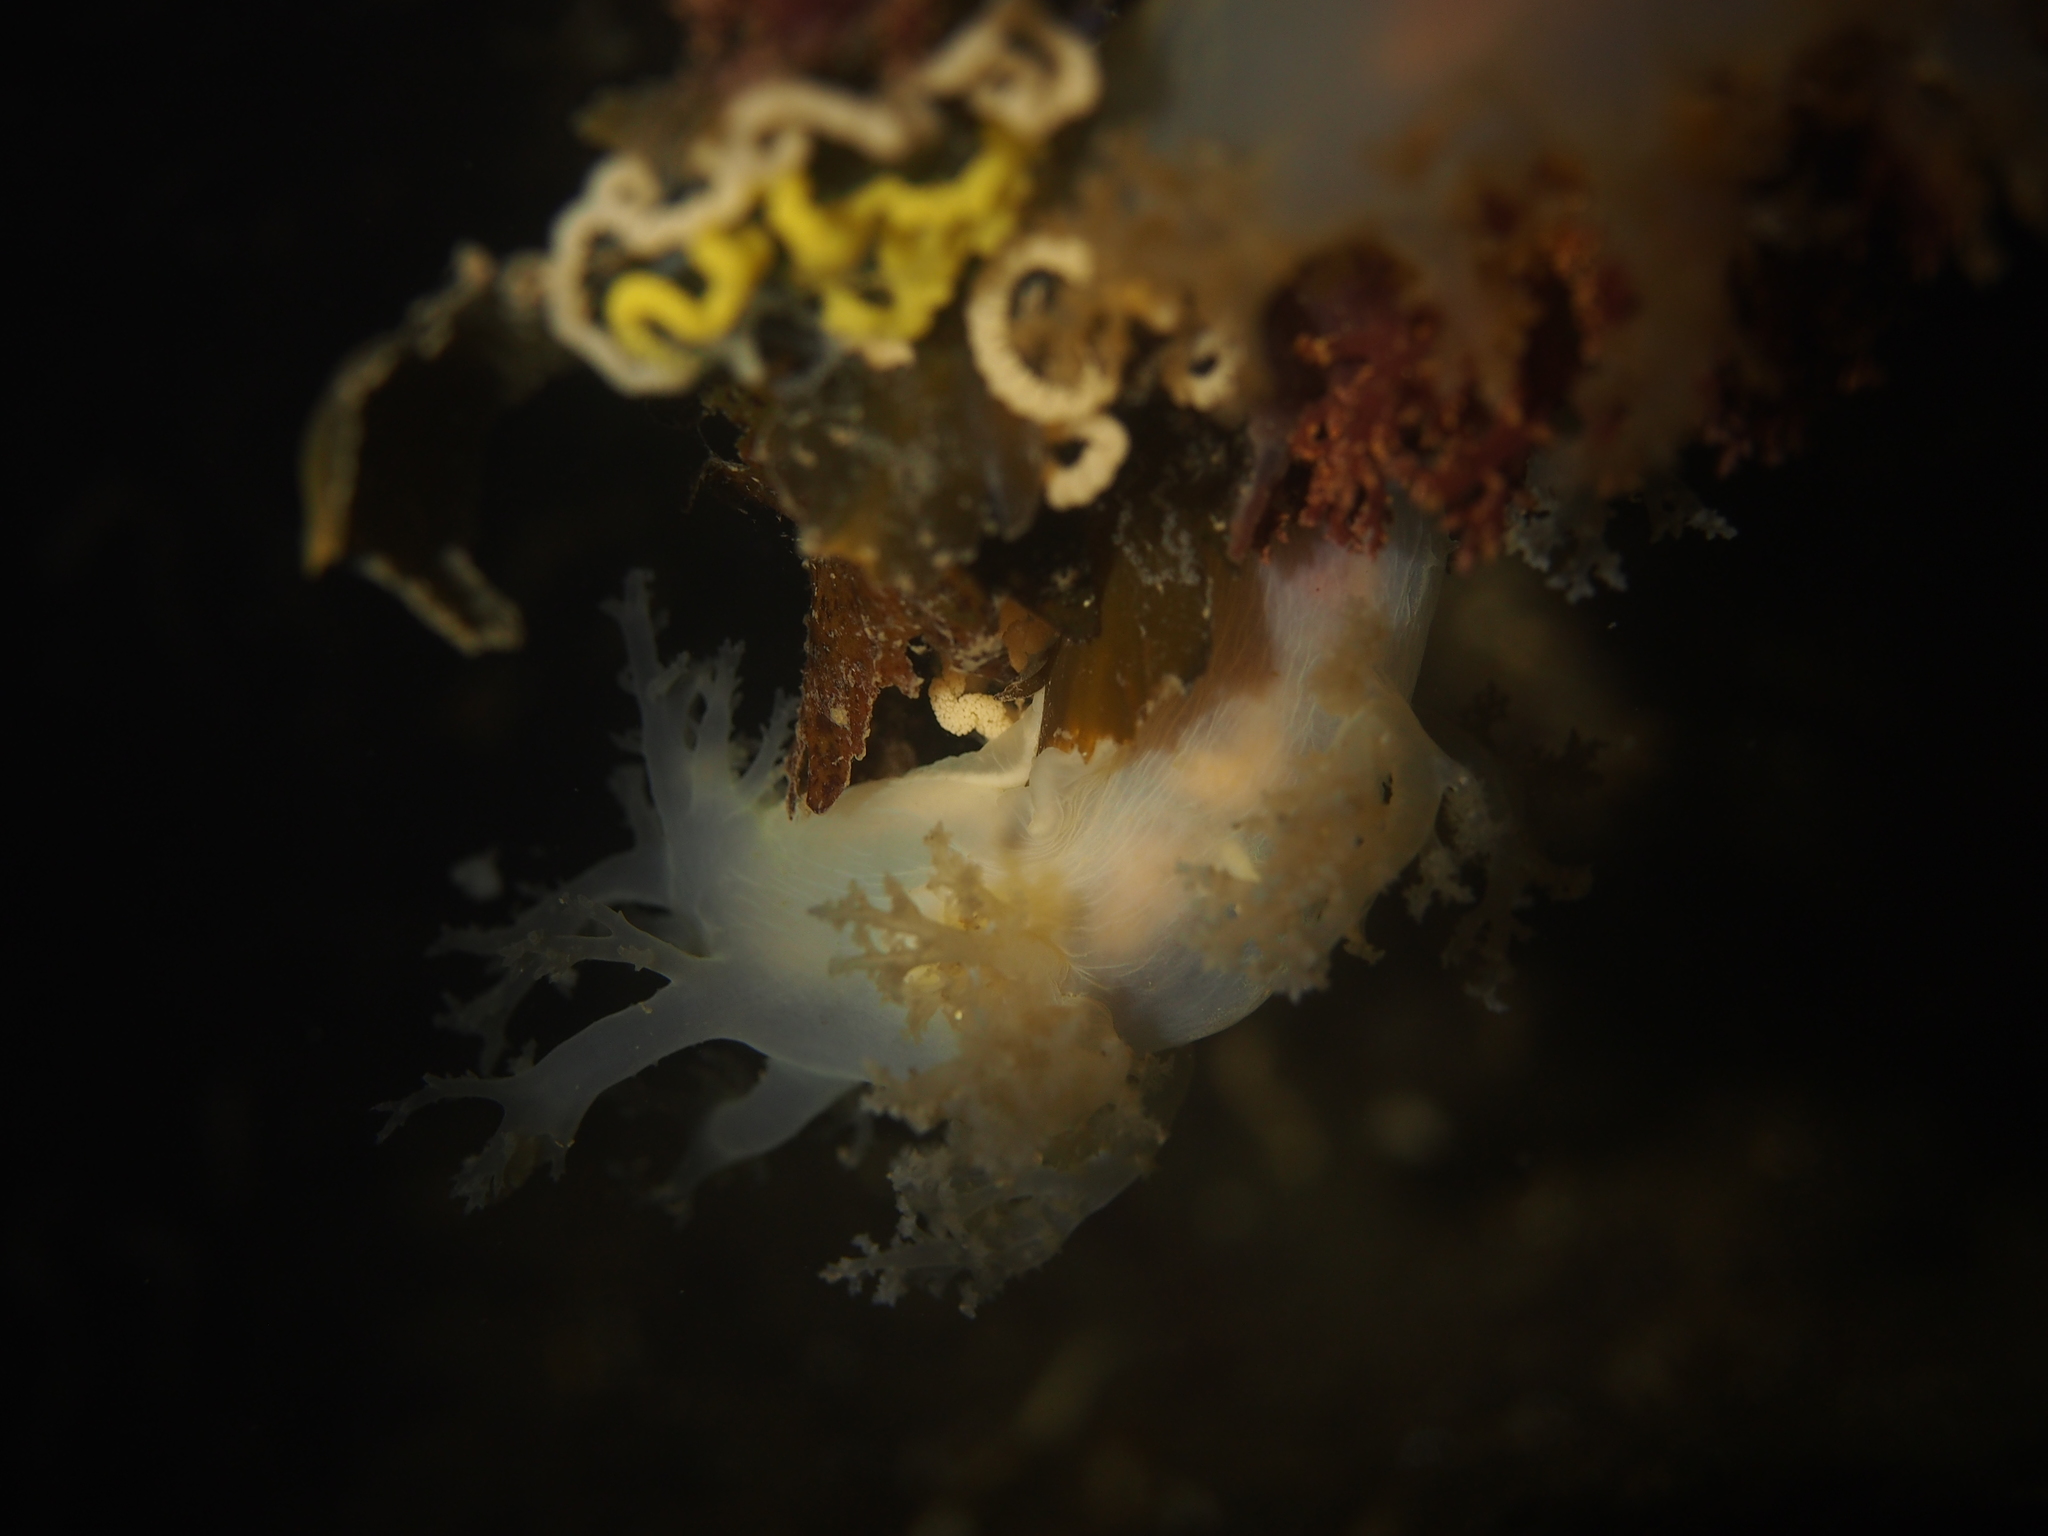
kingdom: Animalia
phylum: Mollusca
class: Gastropoda
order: Nudibranchia
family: Dendronotidae
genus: Dendronotus
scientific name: Dendronotus lacteus
